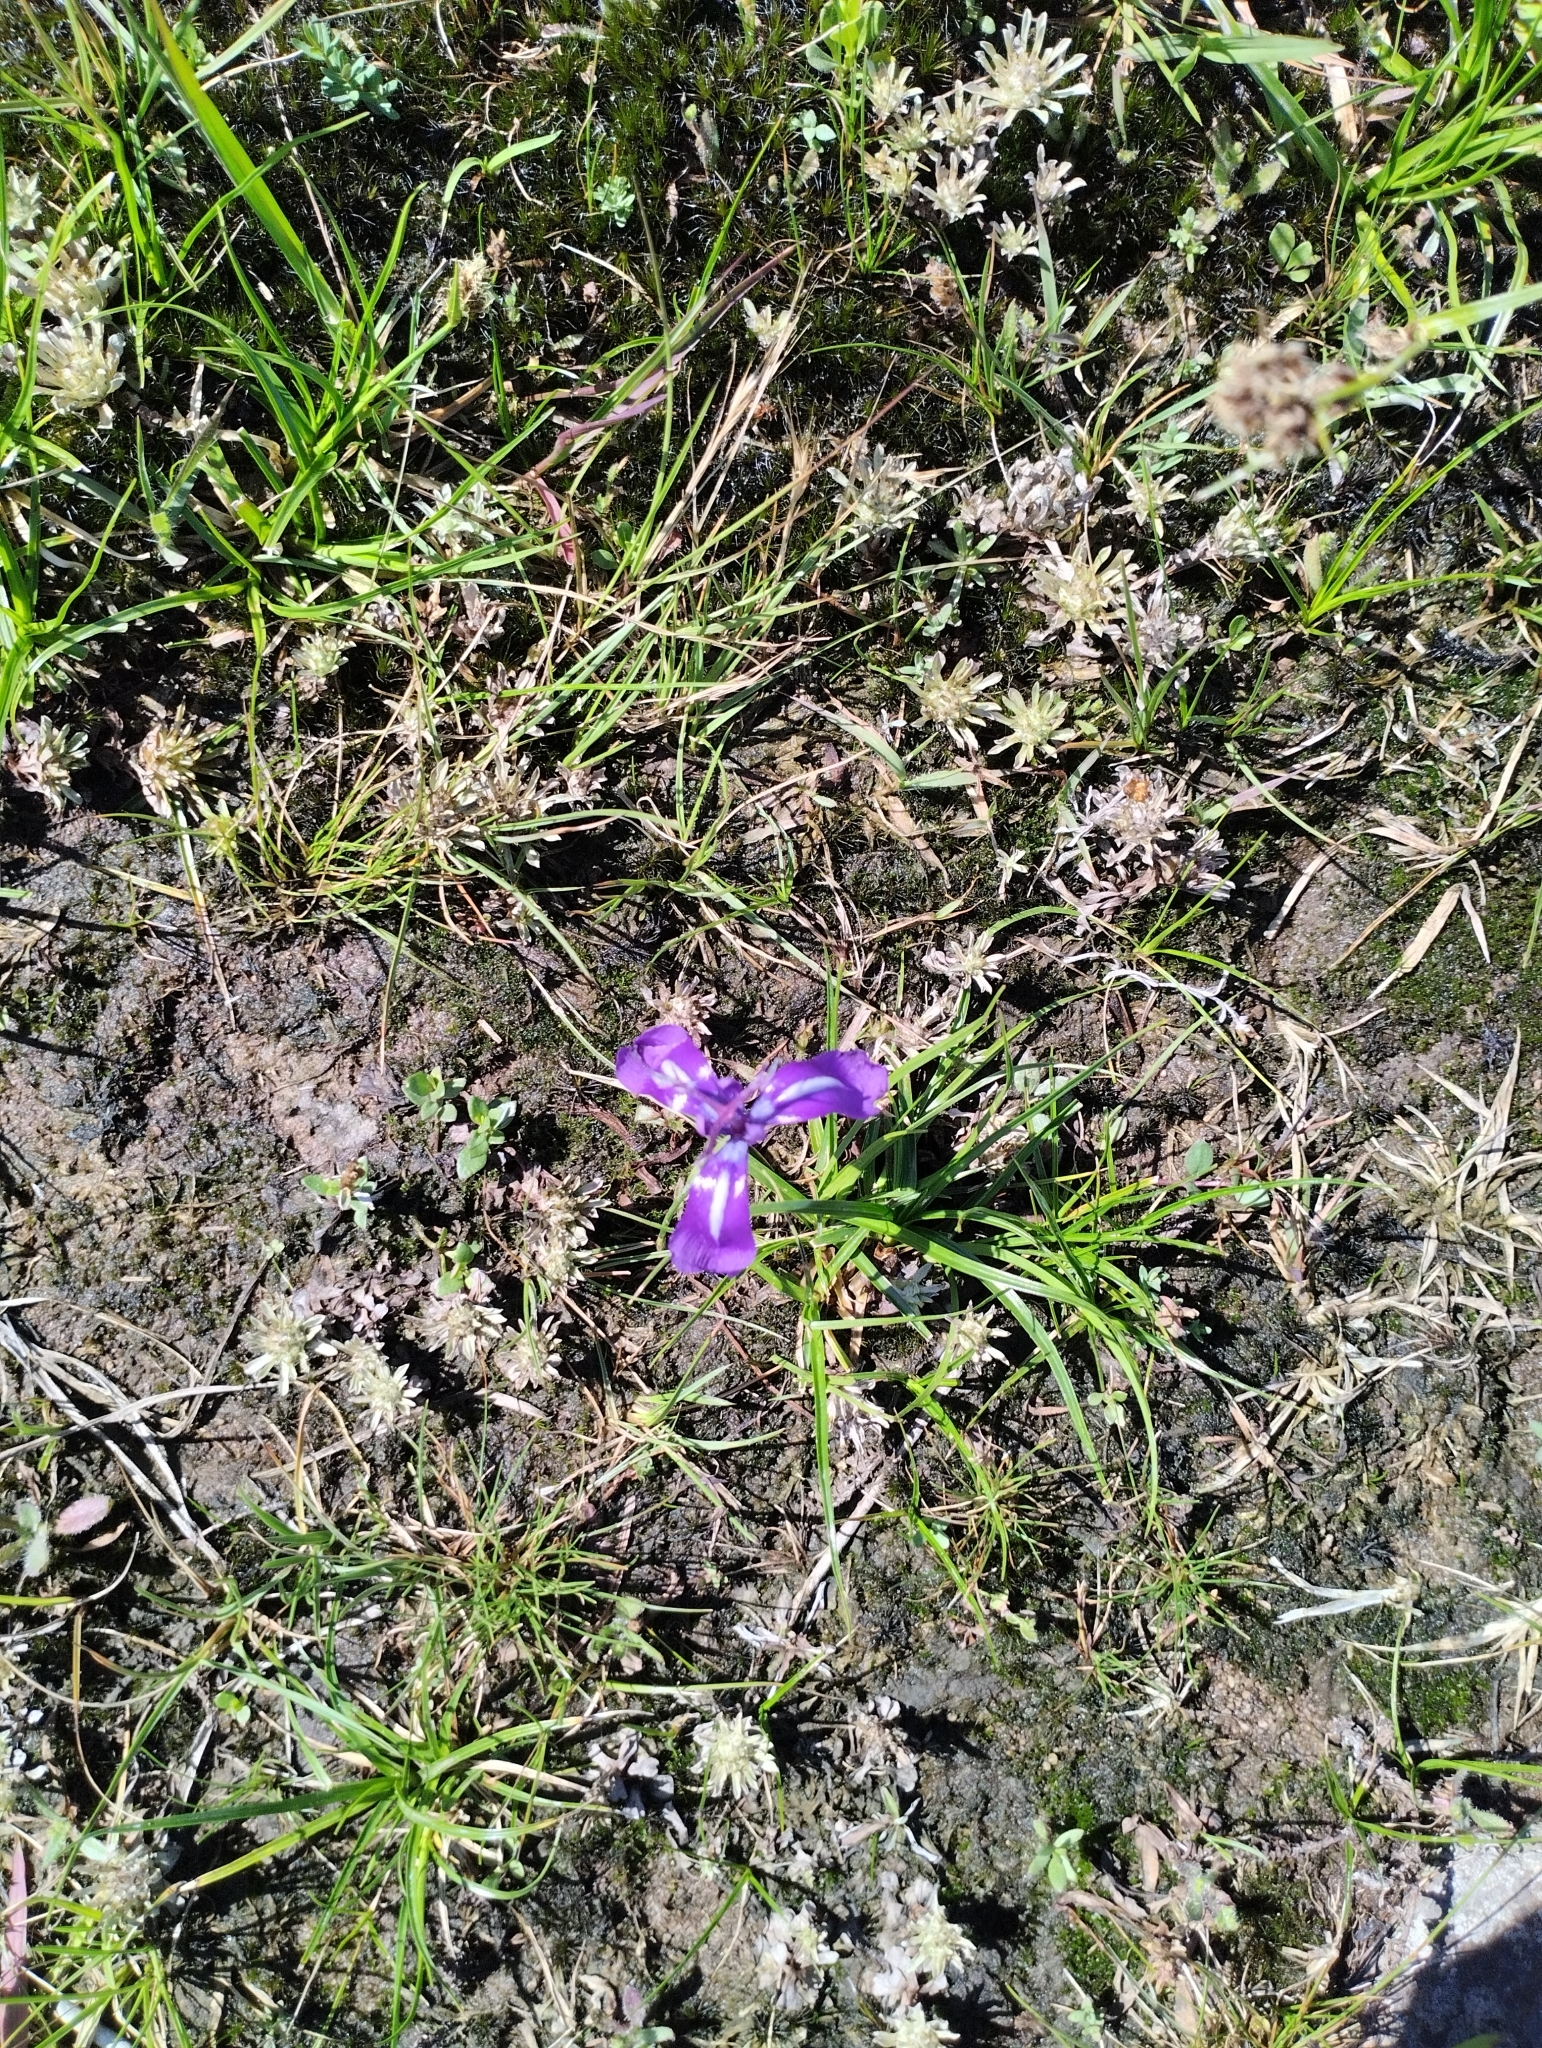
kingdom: Plantae
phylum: Tracheophyta
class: Liliopsida
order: Asparagales
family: Iridaceae
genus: Herbertia
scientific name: Herbertia pulchella
